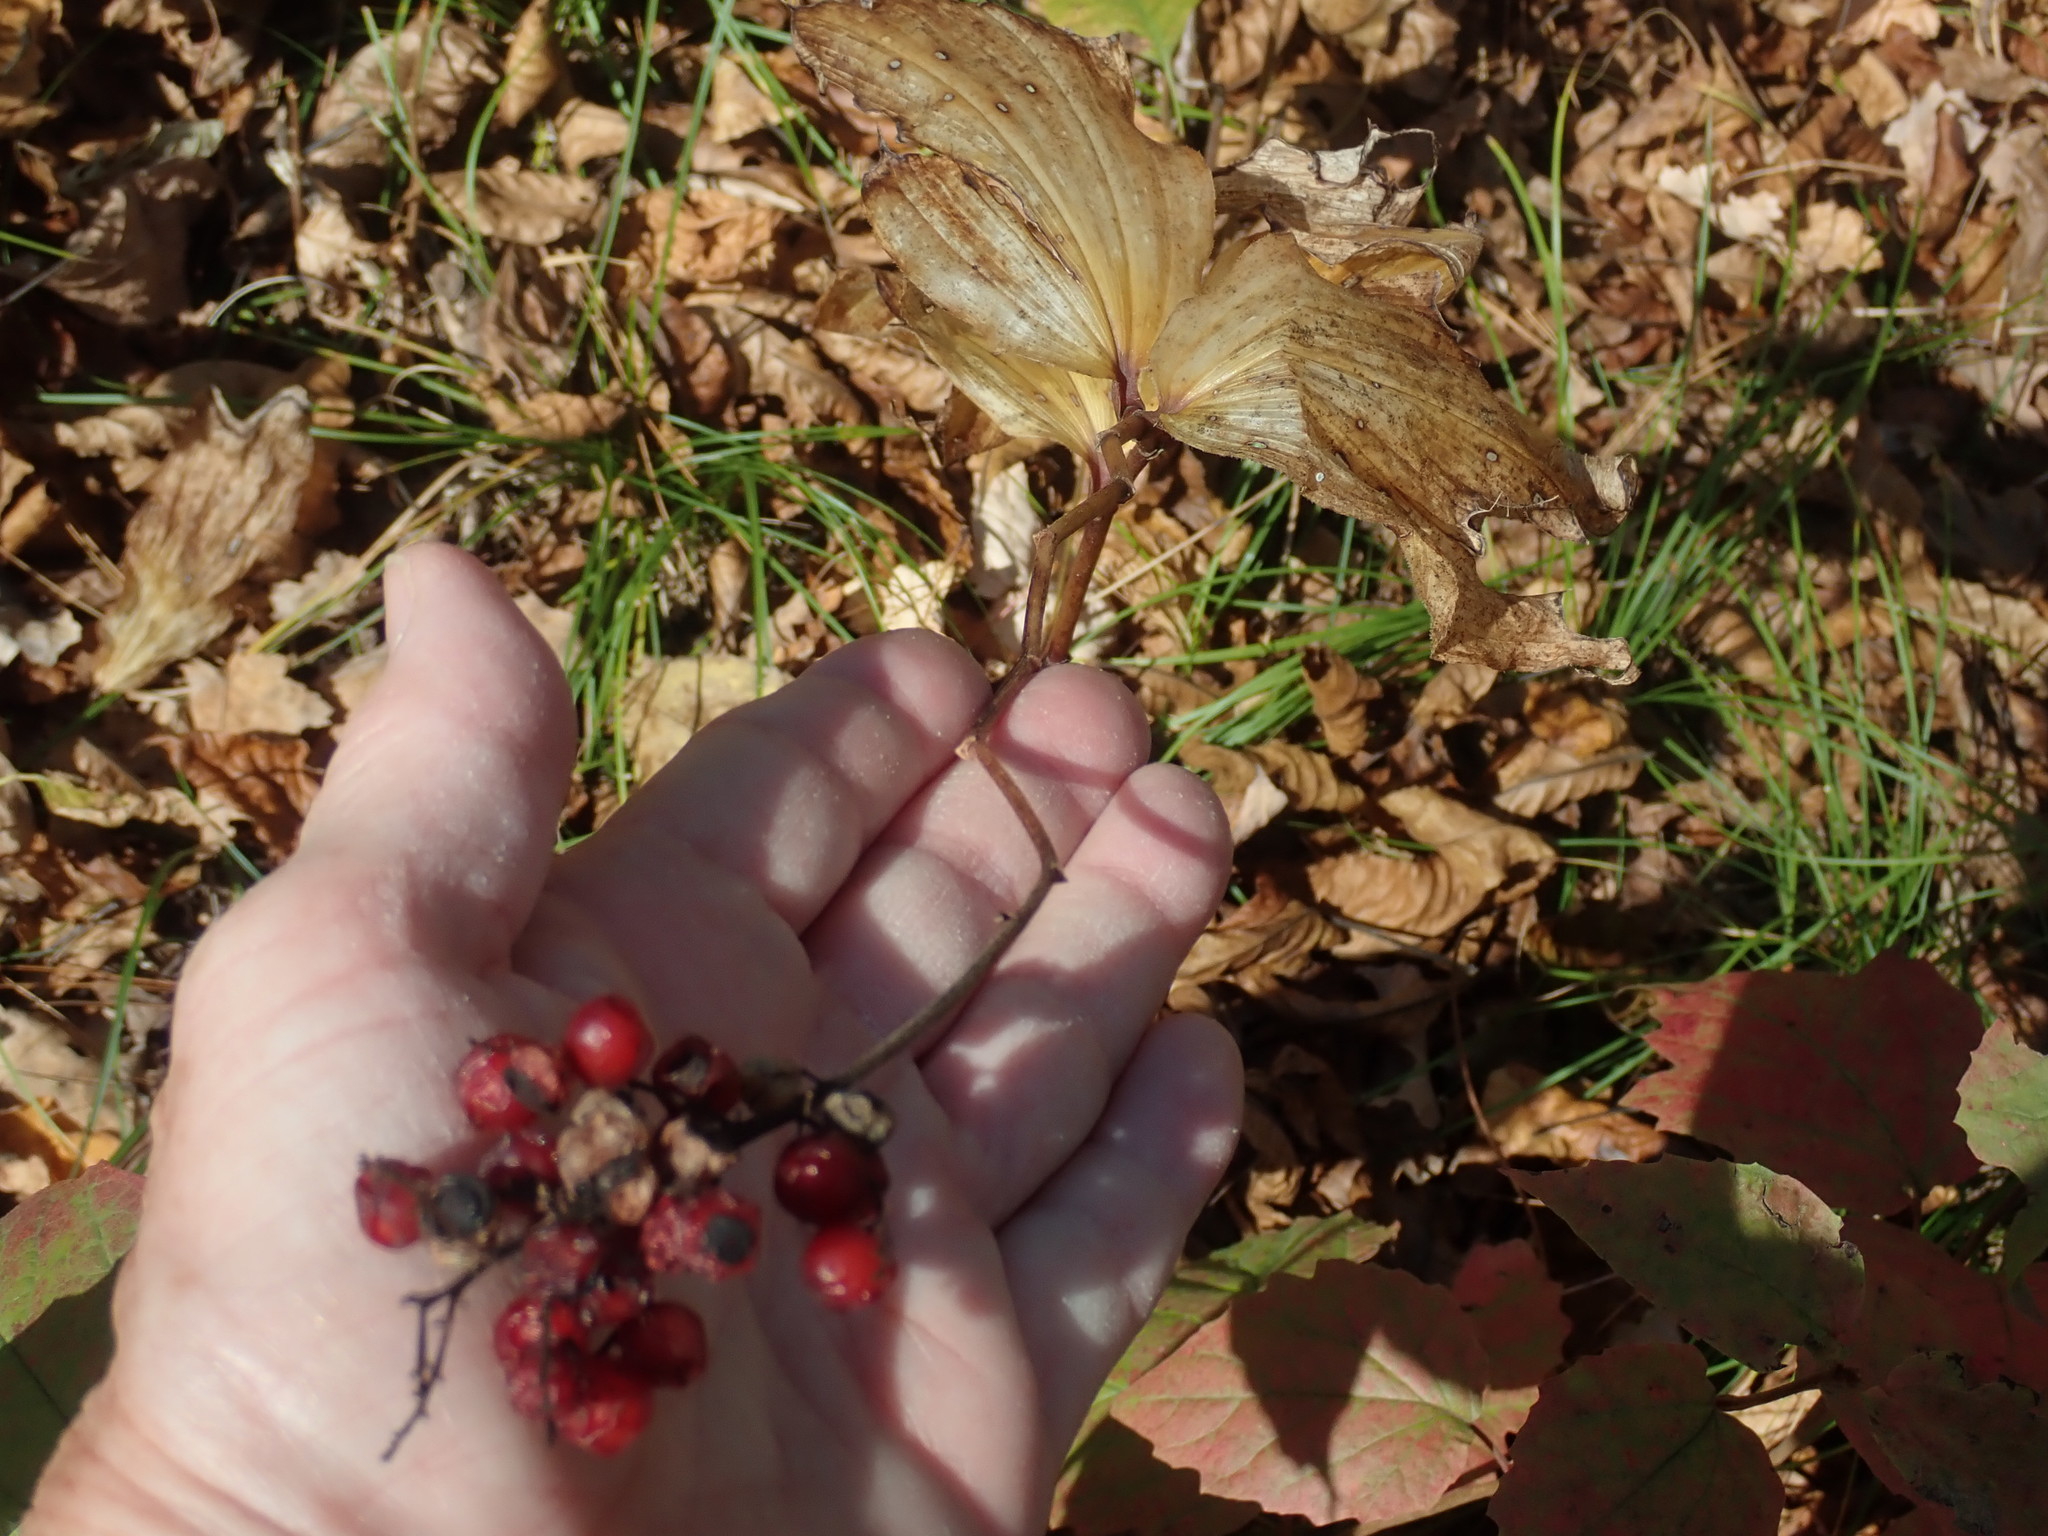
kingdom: Plantae
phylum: Tracheophyta
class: Liliopsida
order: Asparagales
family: Asparagaceae
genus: Maianthemum
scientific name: Maianthemum racemosum
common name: False spikenard
